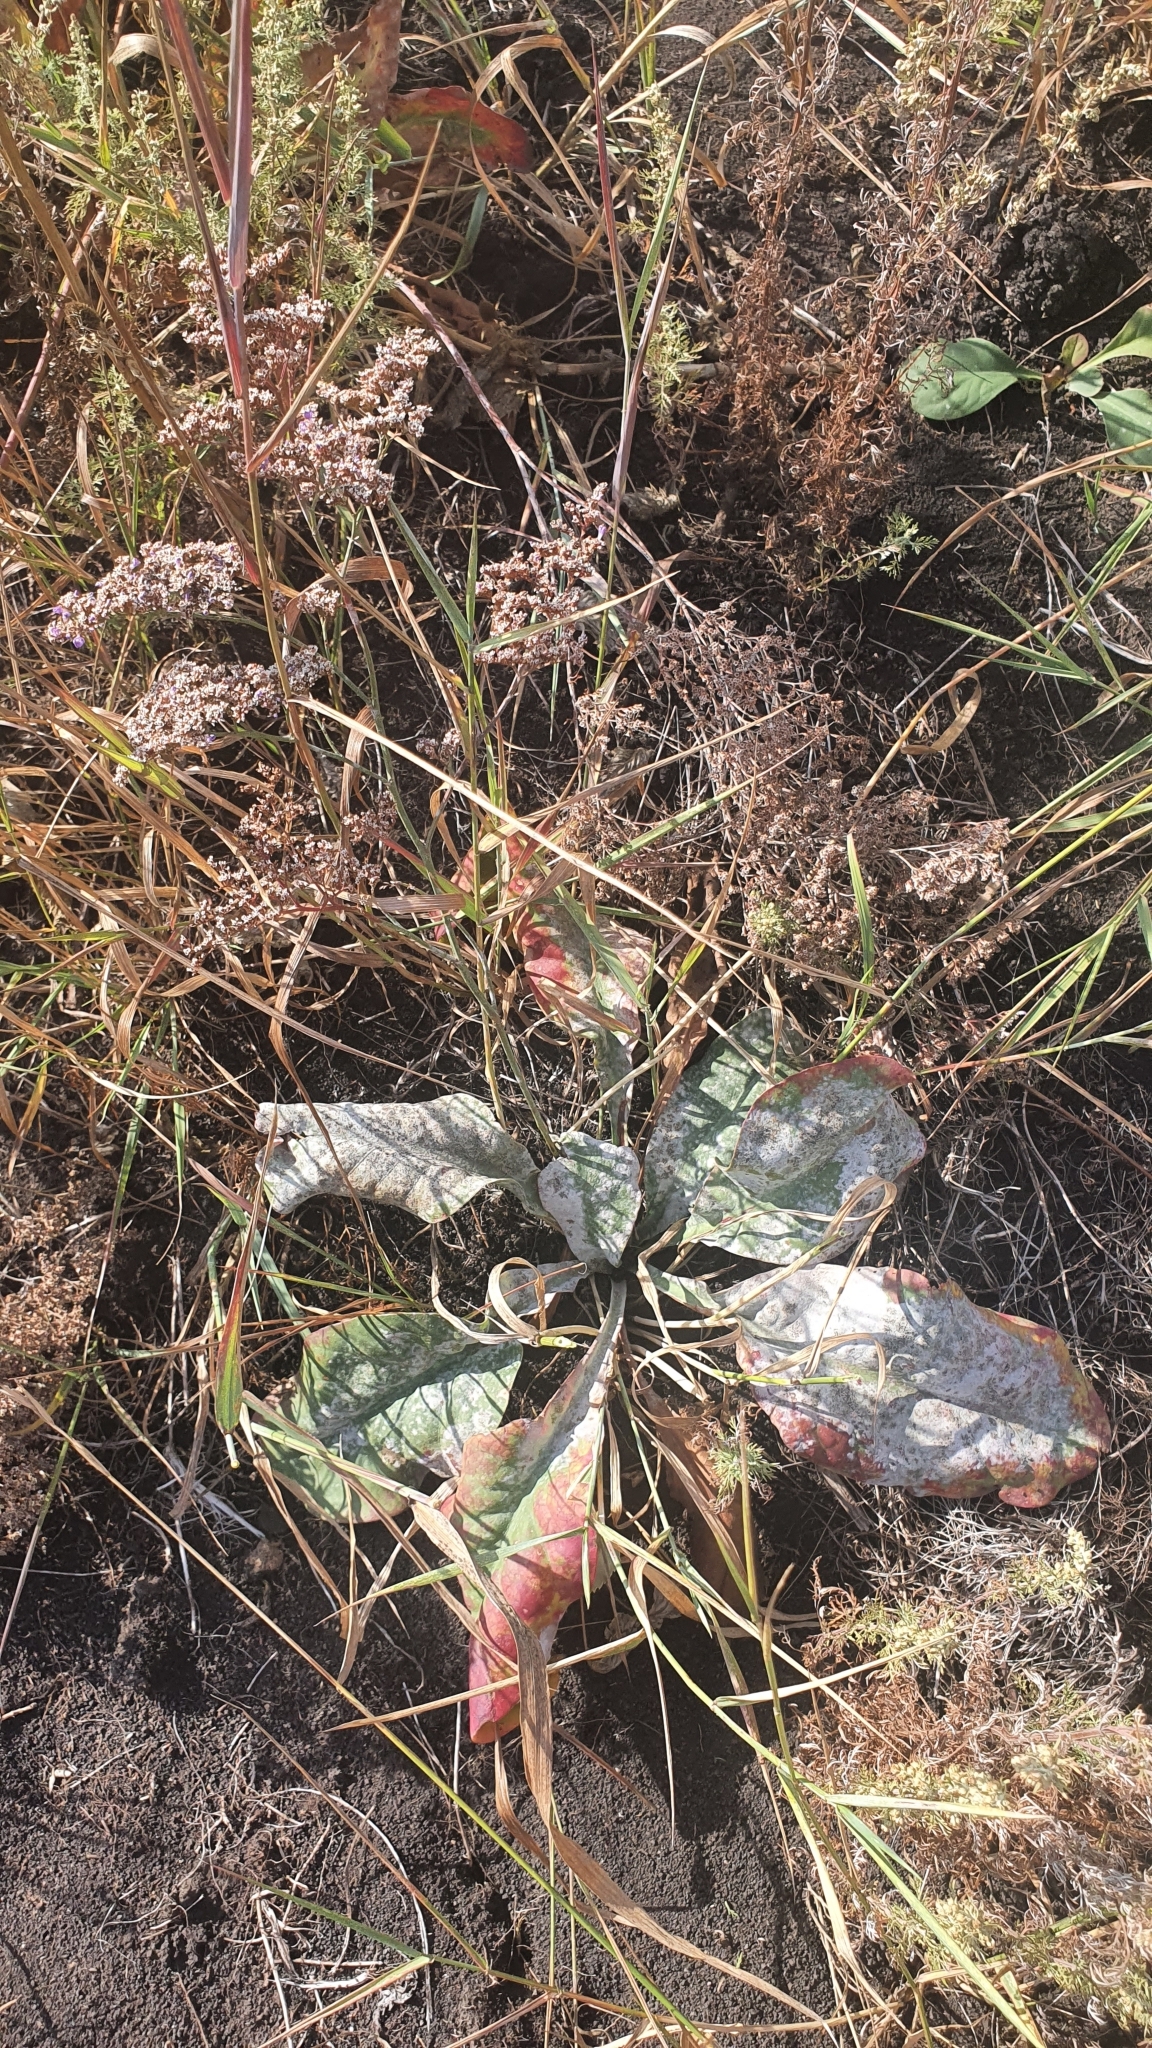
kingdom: Plantae
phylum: Tracheophyta
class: Magnoliopsida
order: Caryophyllales
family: Plumbaginaceae
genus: Limonium
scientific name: Limonium gmelini
